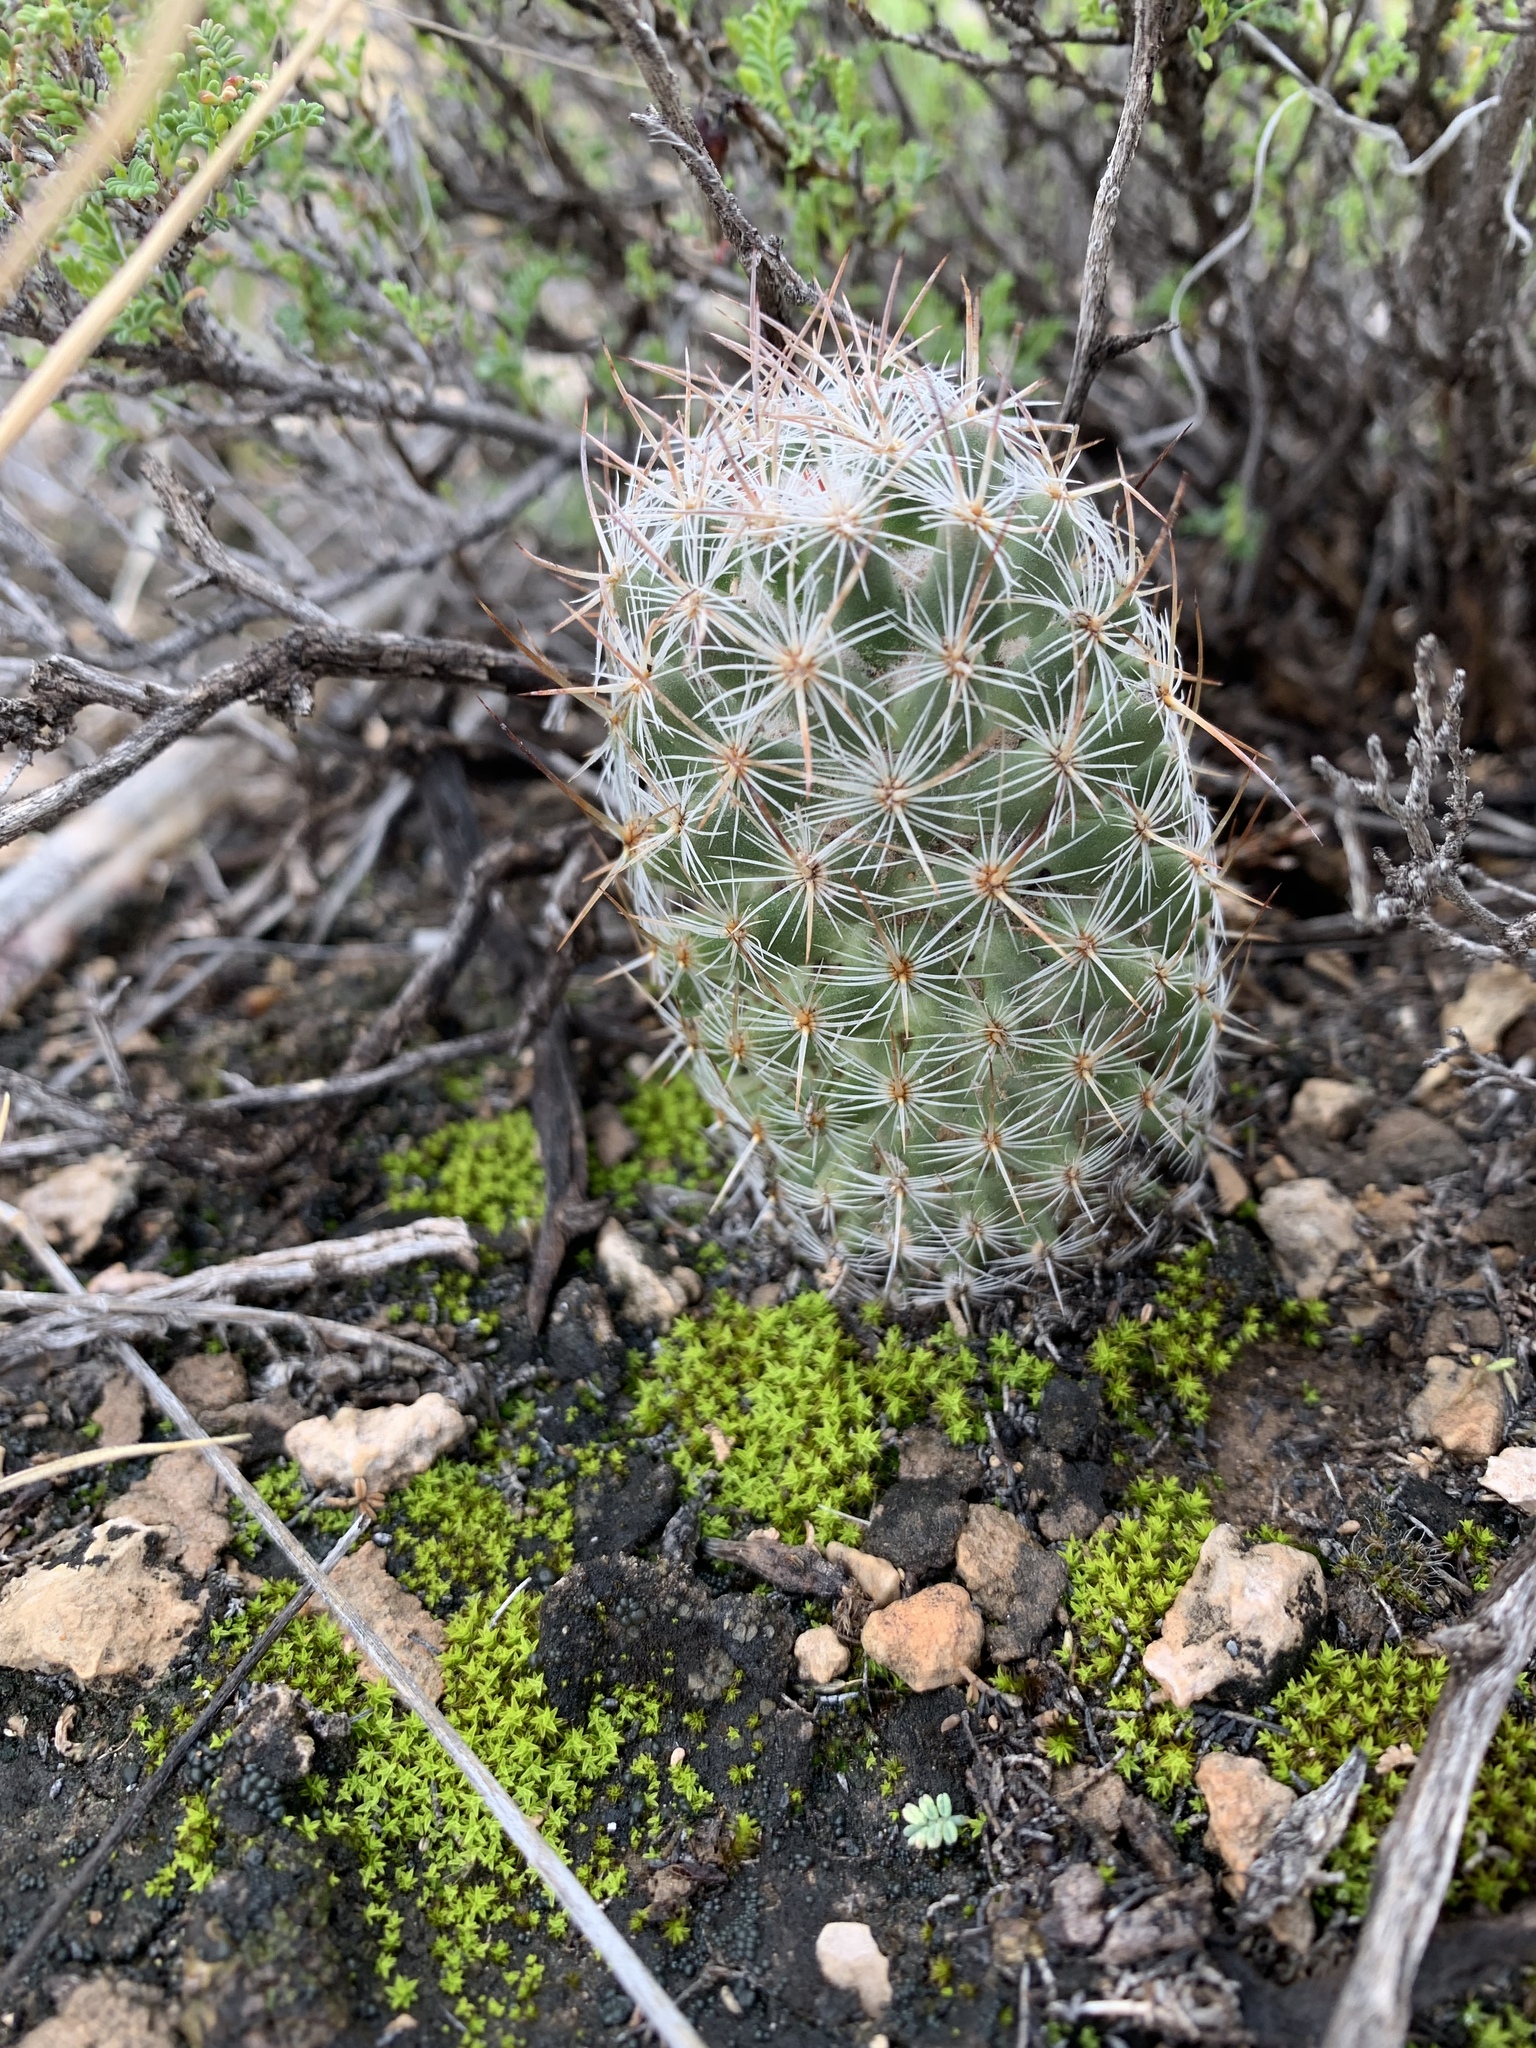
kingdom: Plantae
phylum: Tracheophyta
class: Magnoliopsida
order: Caryophyllales
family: Cactaceae
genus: Pelecyphora
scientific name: Pelecyphora tuberculosa
